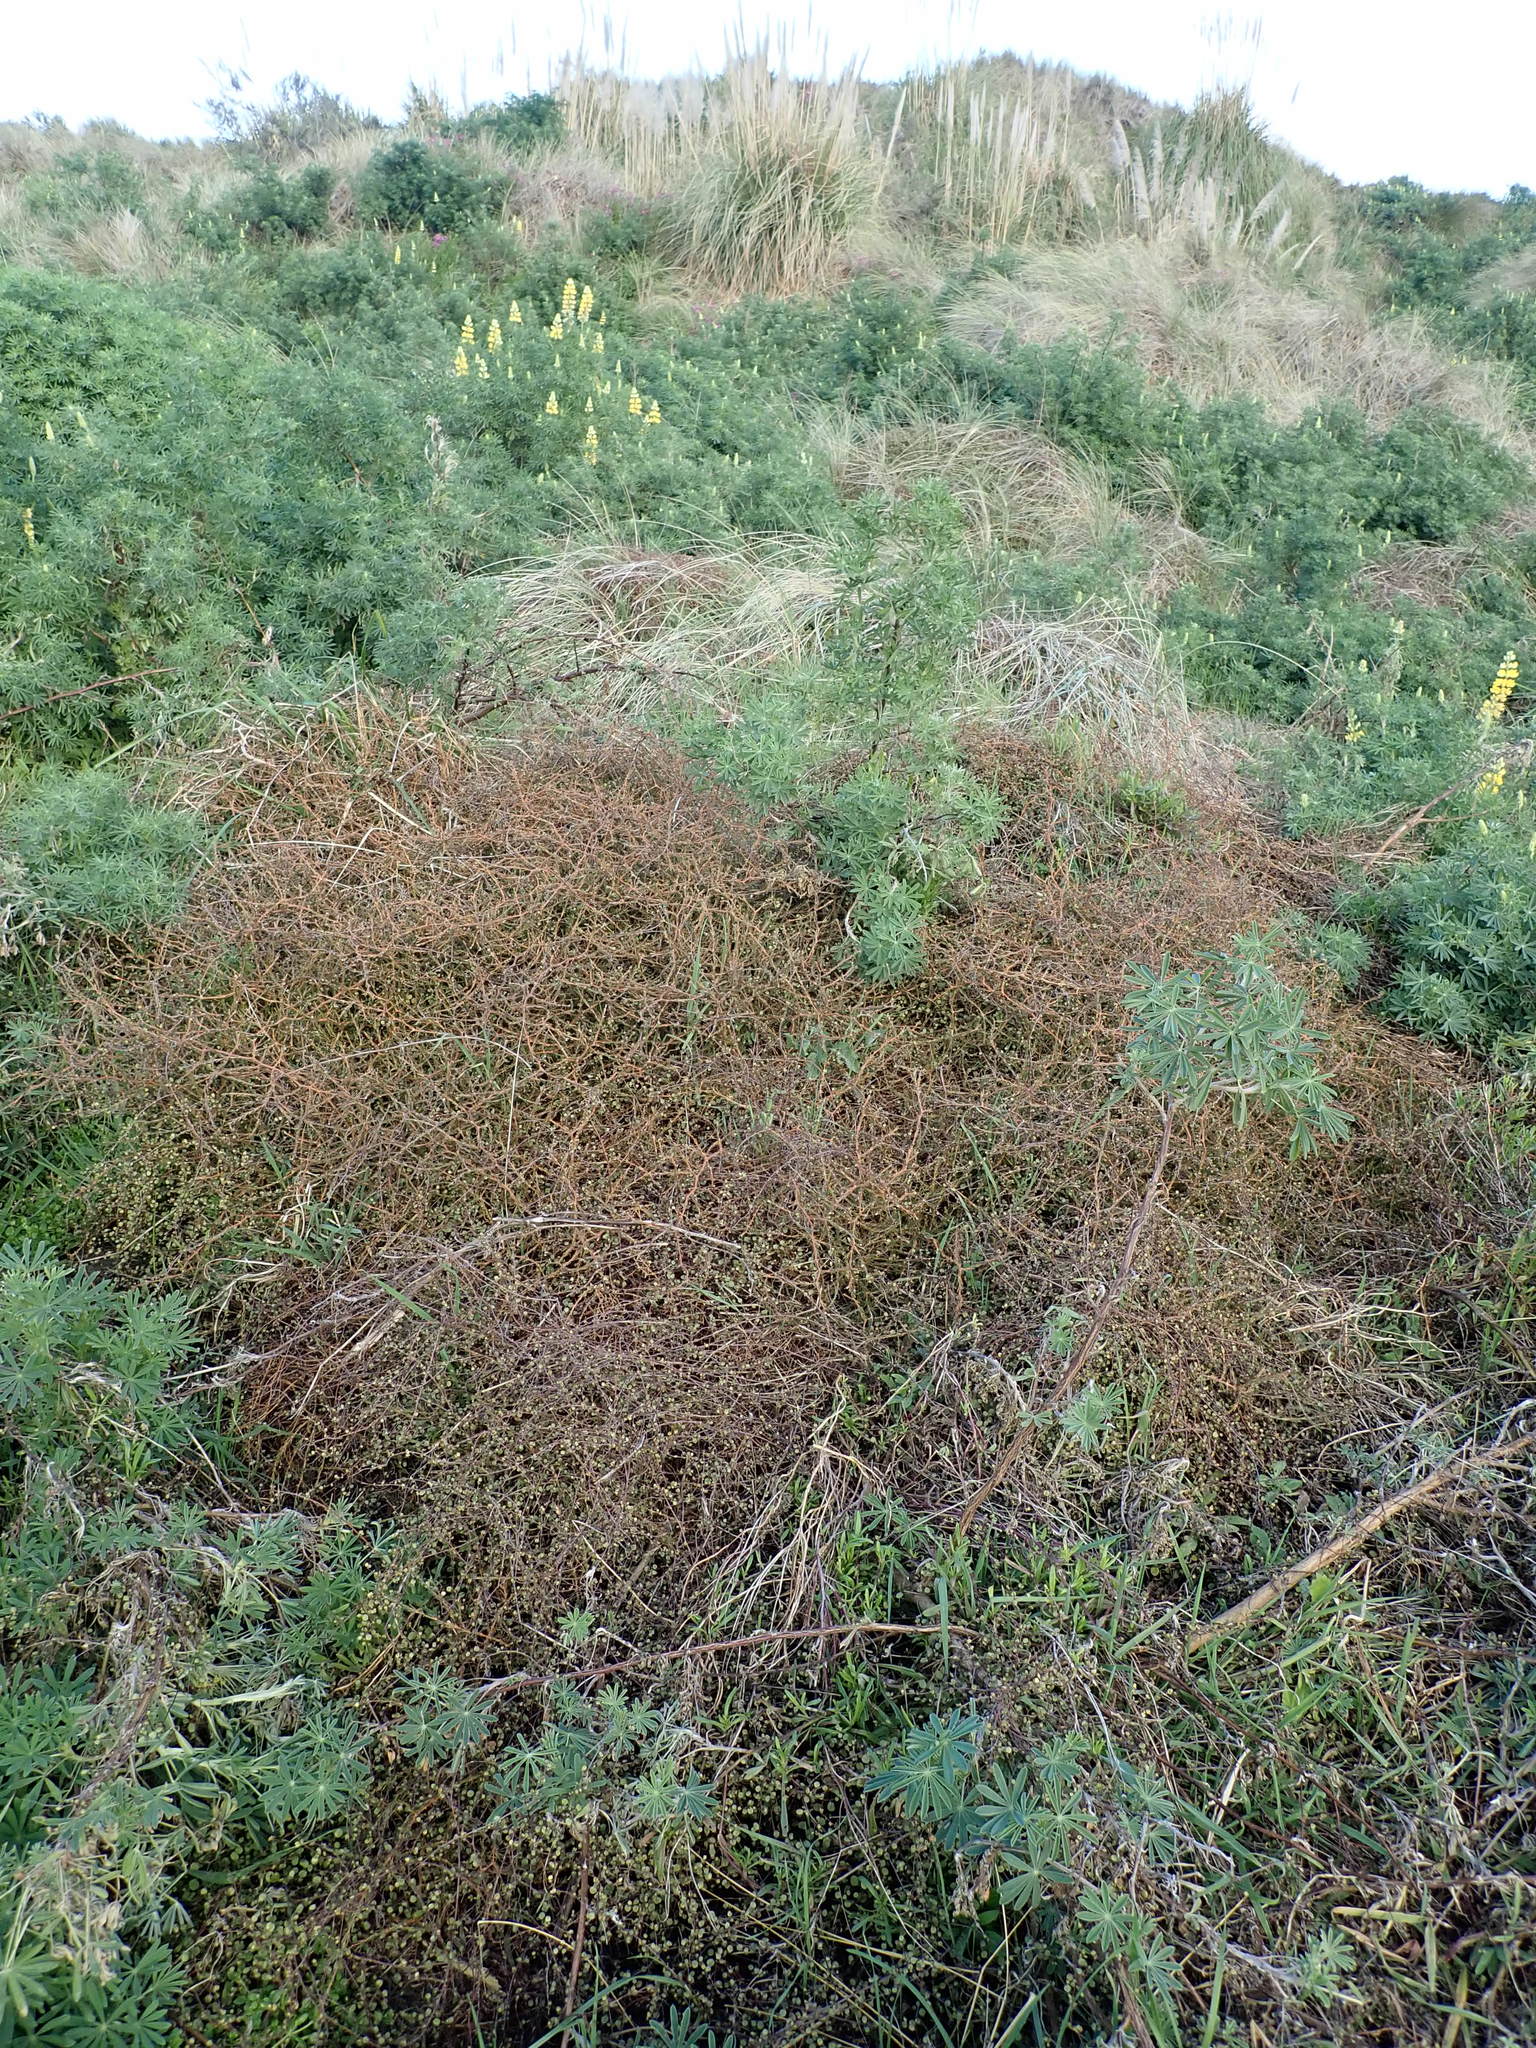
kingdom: Plantae
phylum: Tracheophyta
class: Magnoliopsida
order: Gentianales
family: Rubiaceae
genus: Coprosma
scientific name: Coprosma acerosa
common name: Sand coprosma
